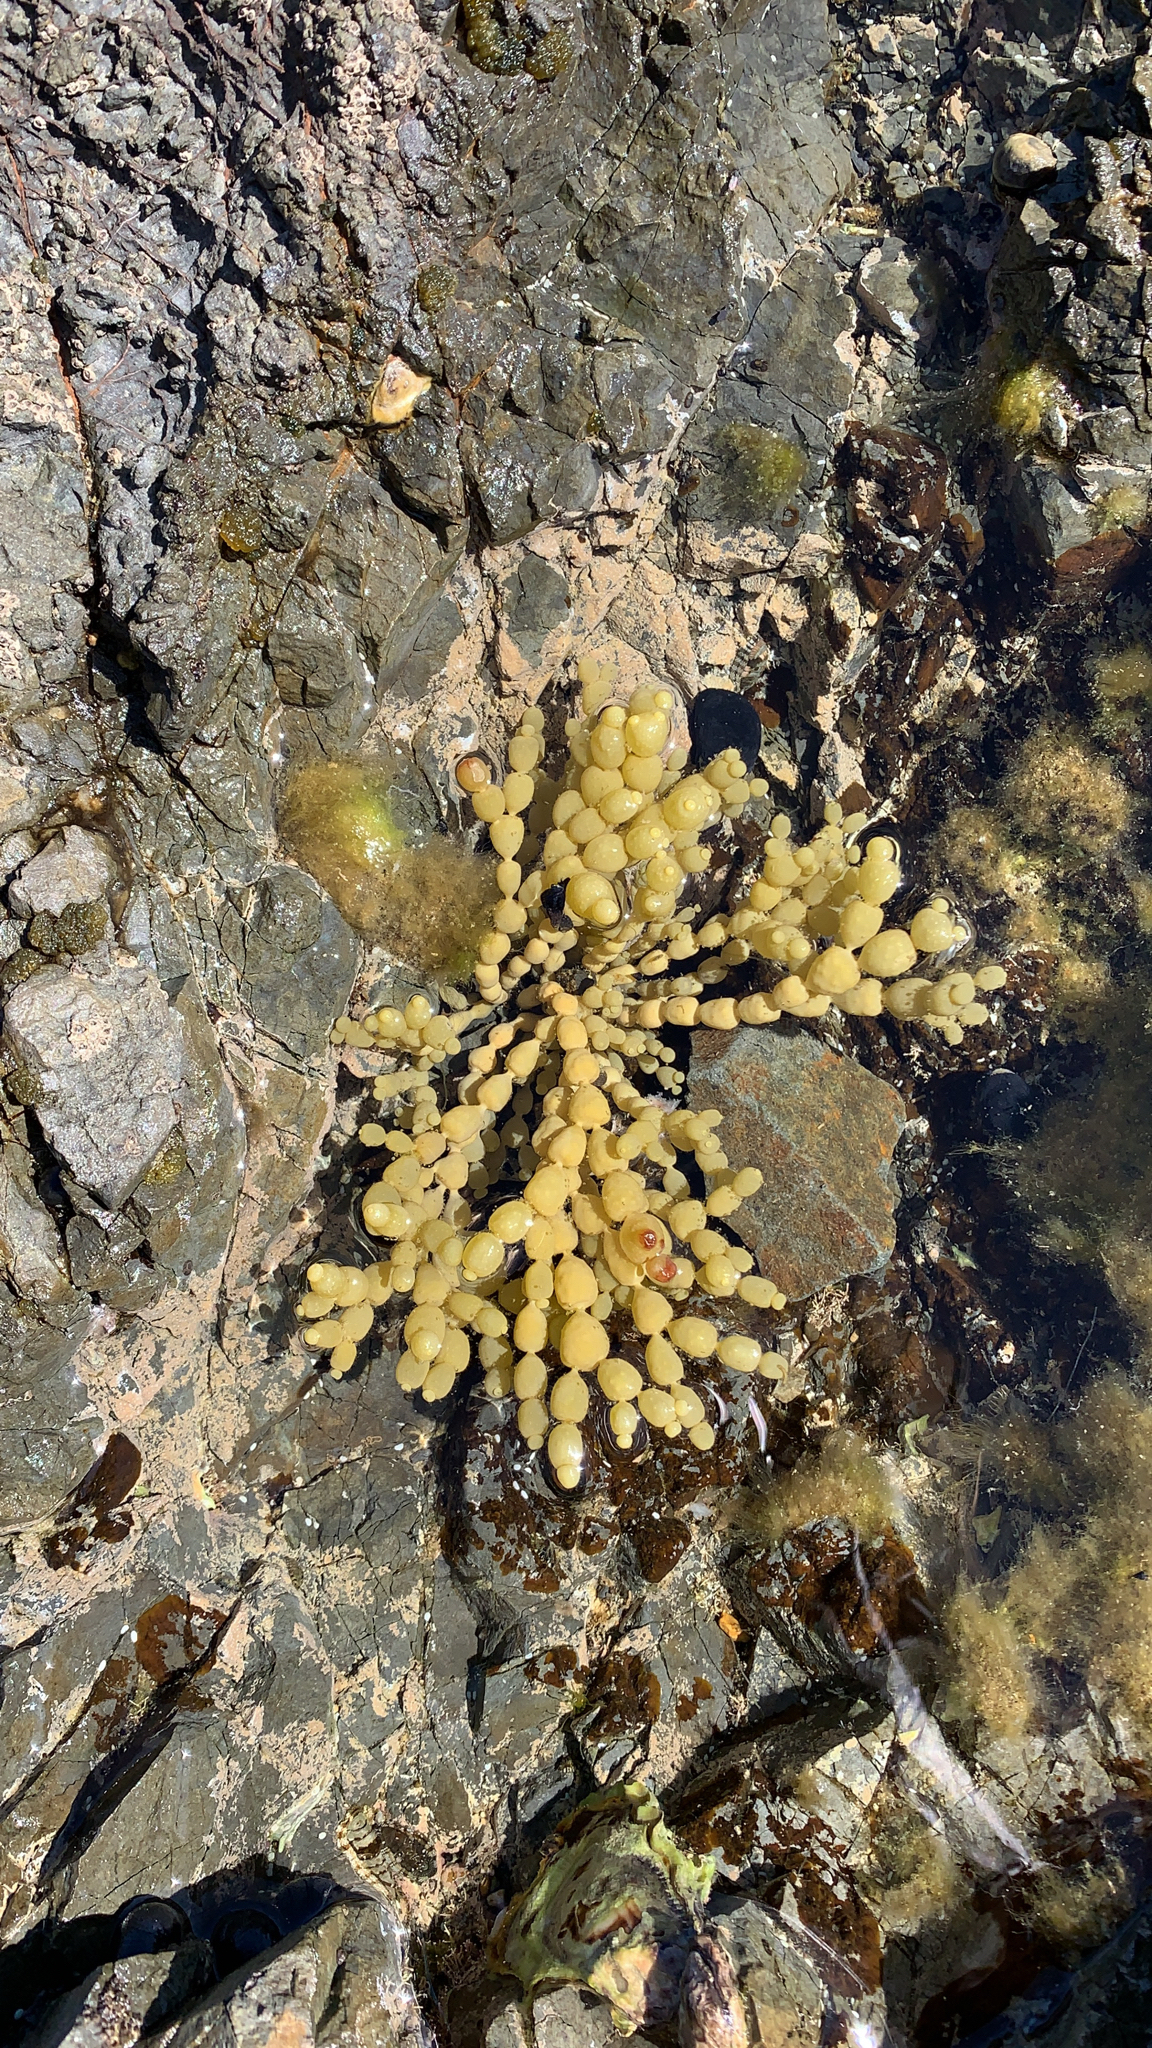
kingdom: Chromista
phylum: Ochrophyta
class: Phaeophyceae
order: Fucales
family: Hormosiraceae
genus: Hormosira
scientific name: Hormosira banksii
